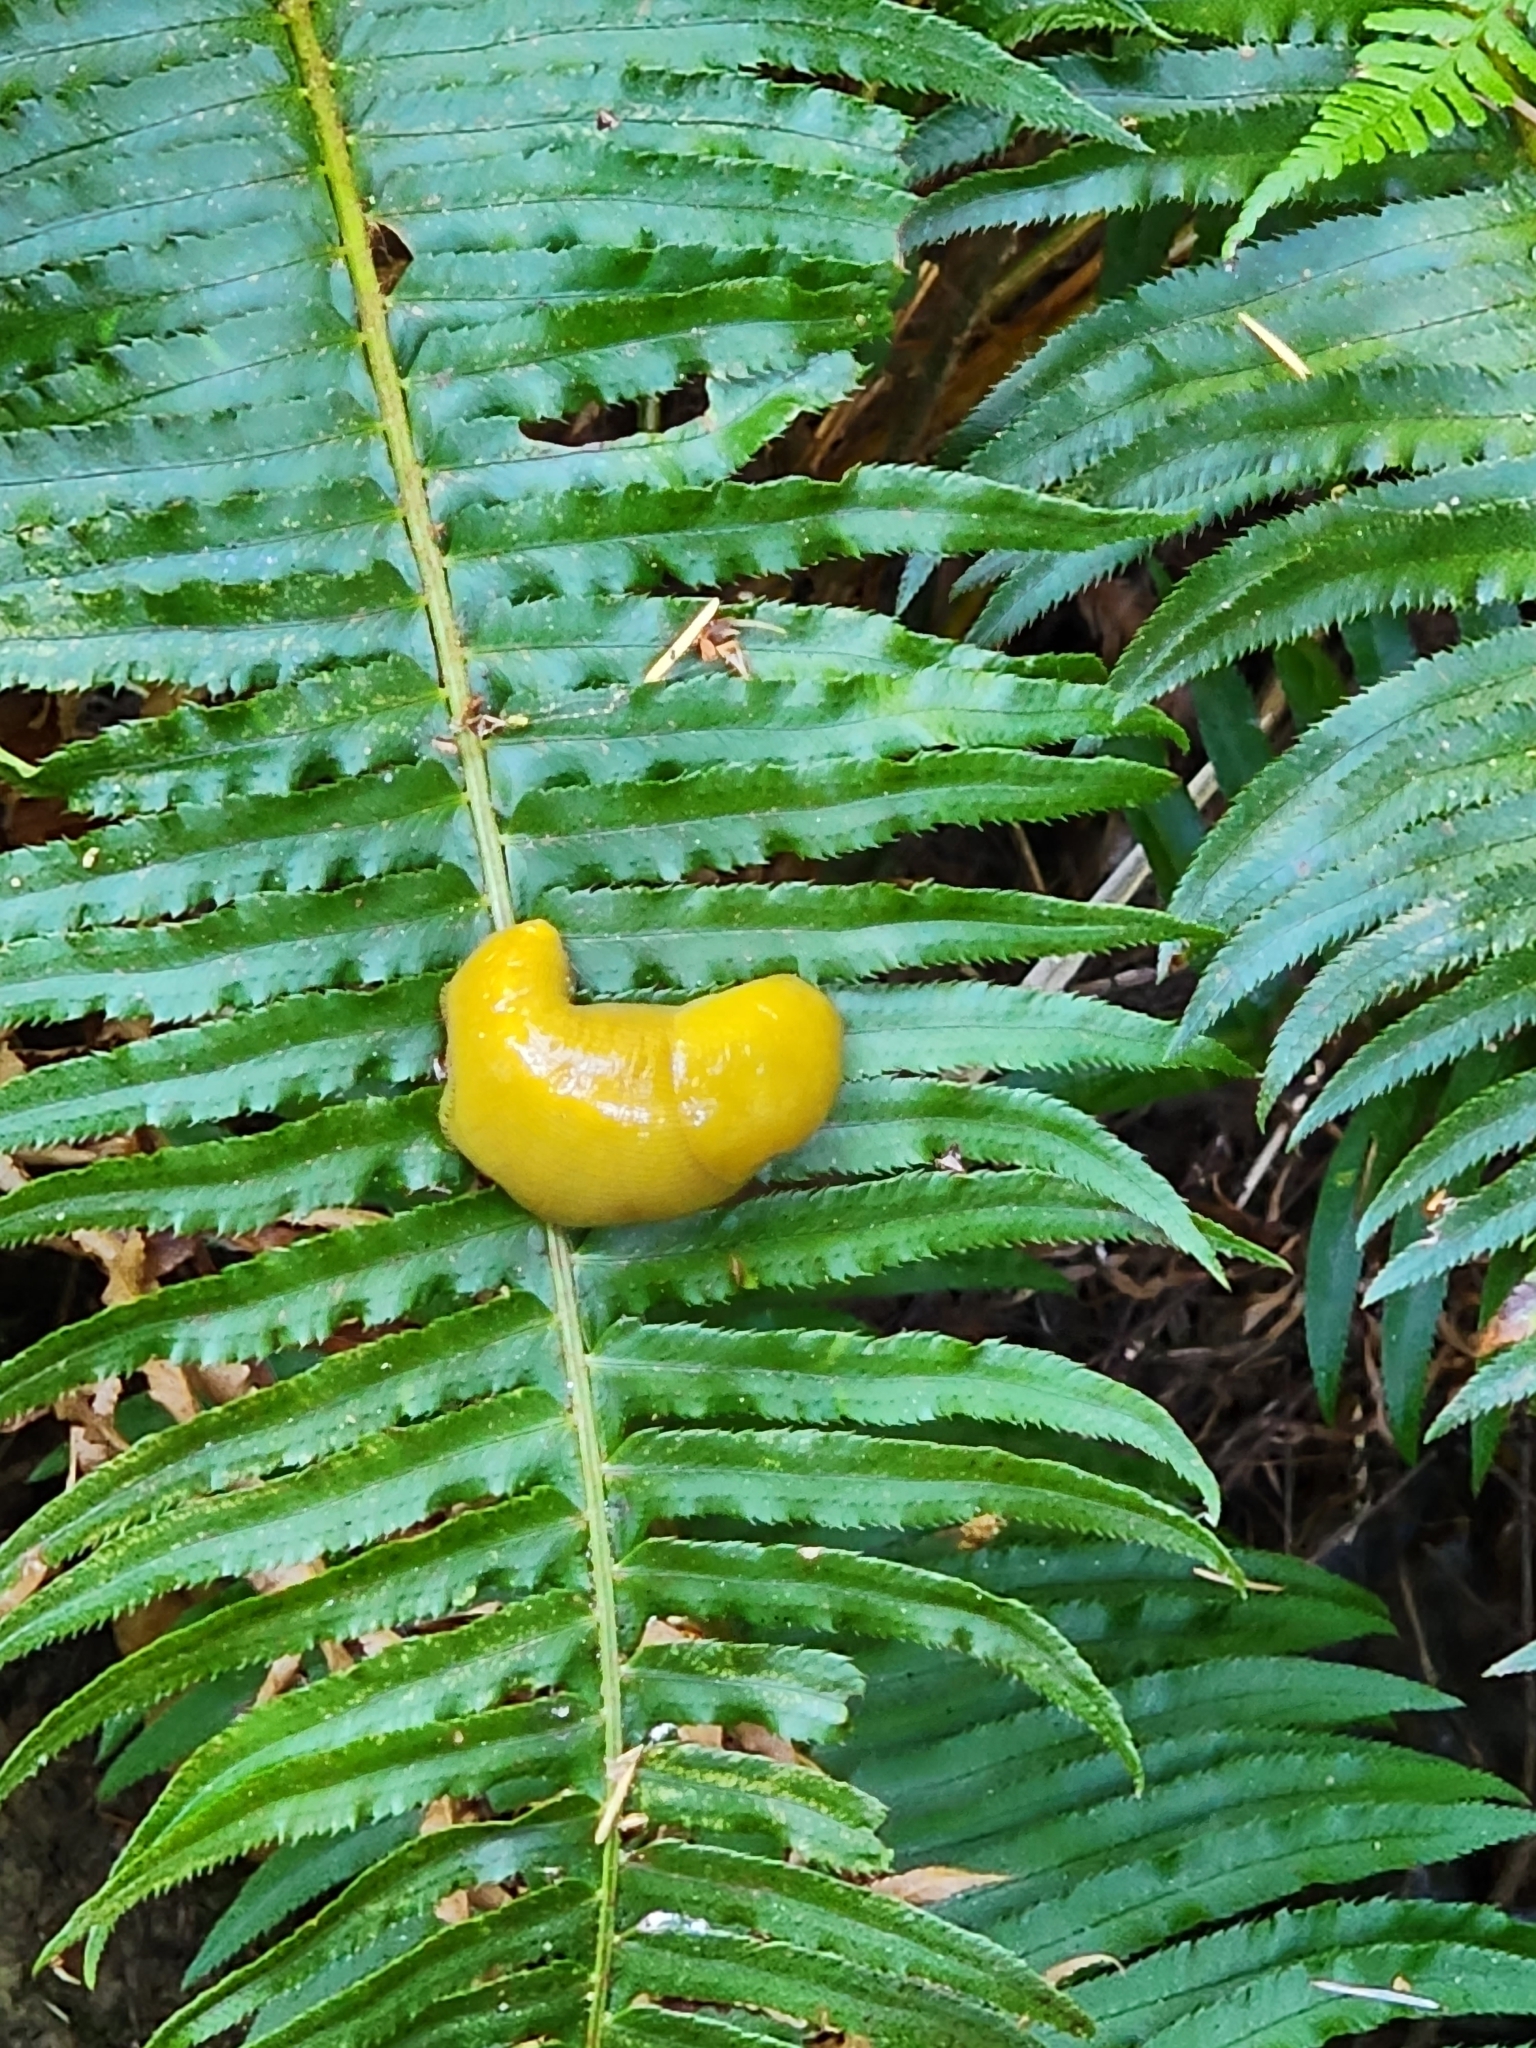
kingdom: Animalia
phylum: Mollusca
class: Gastropoda
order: Stylommatophora
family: Ariolimacidae
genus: Ariolimax
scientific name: Ariolimax buttoni
